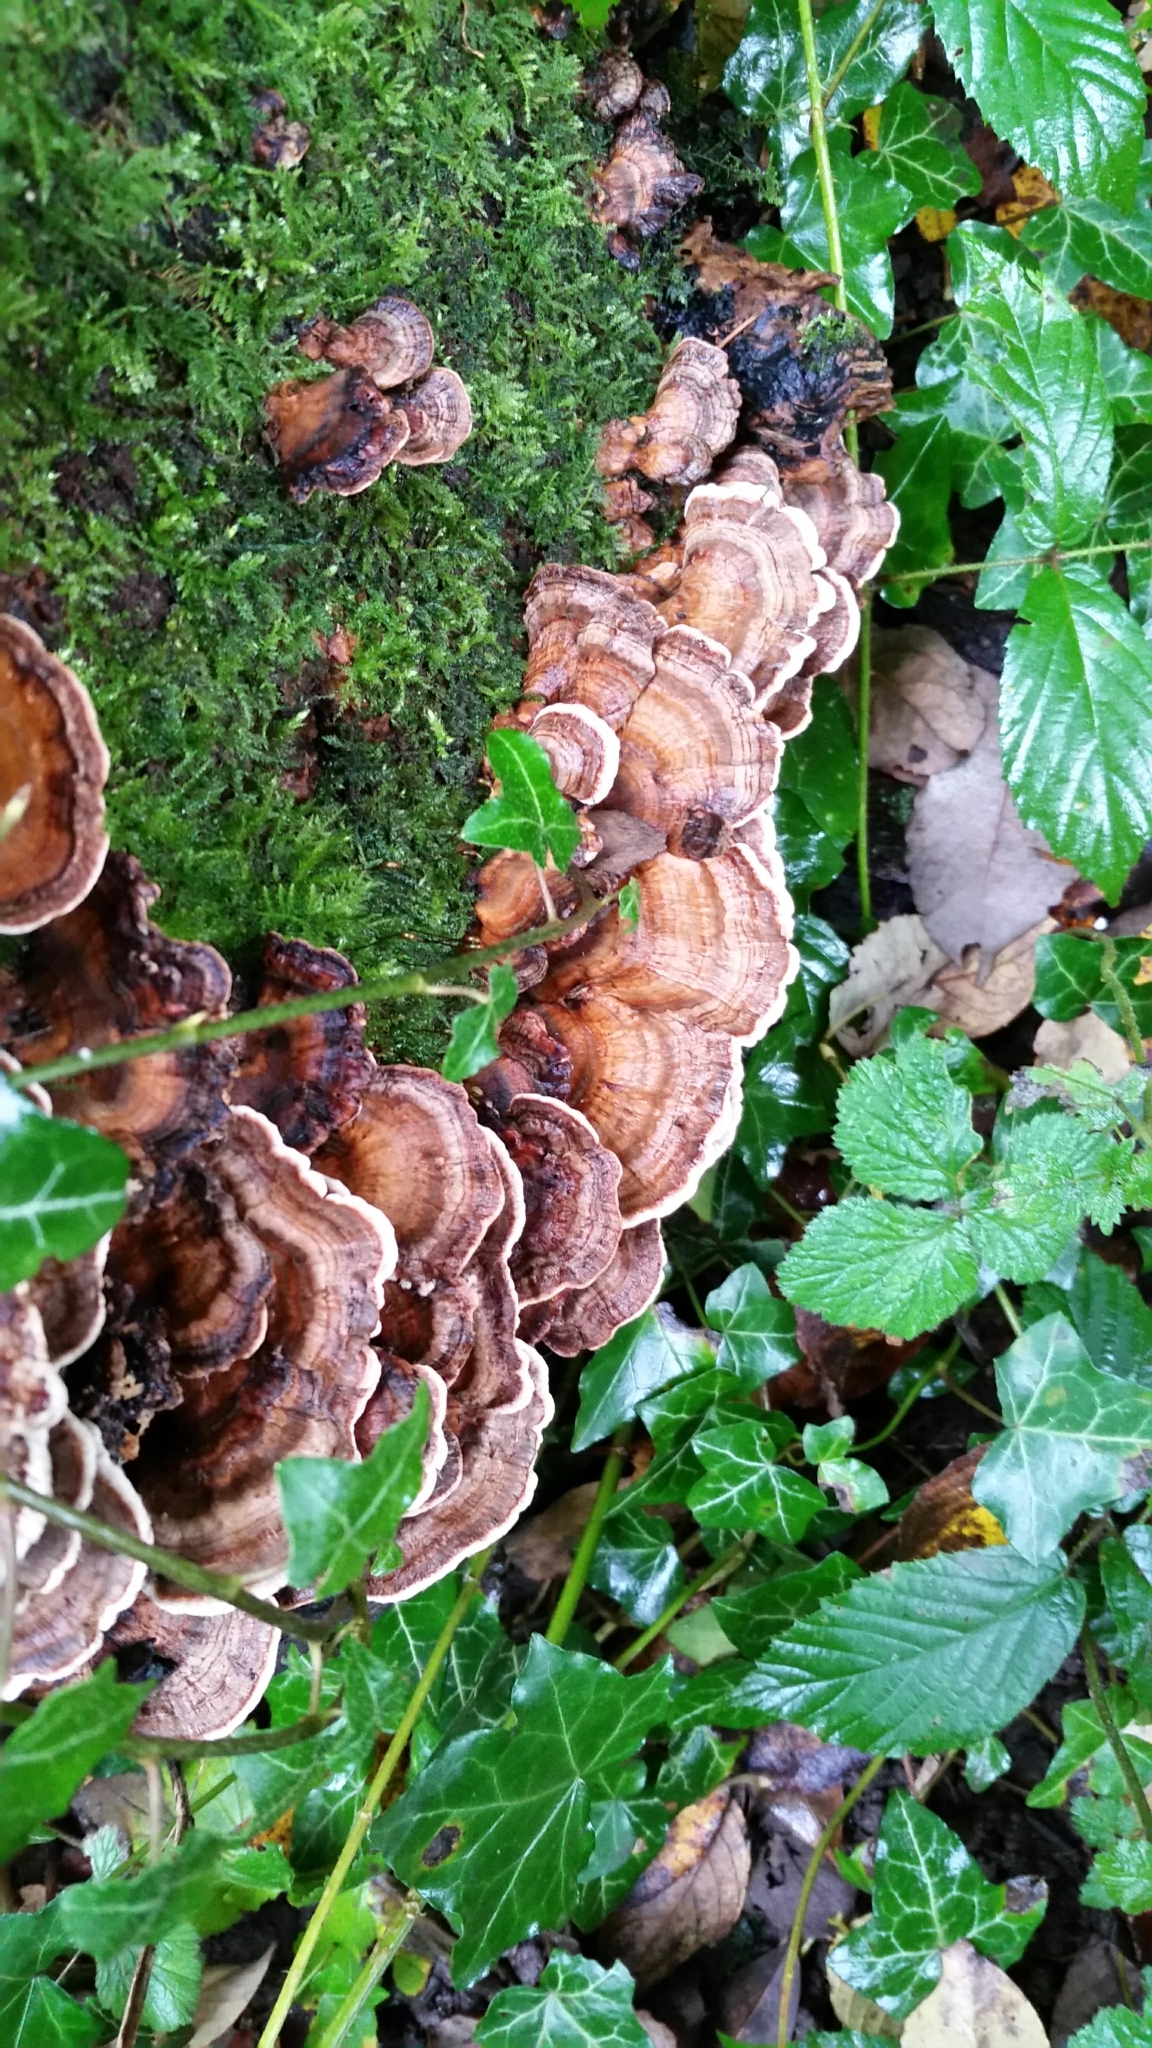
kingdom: Fungi
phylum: Basidiomycota
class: Agaricomycetes
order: Polyporales
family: Polyporaceae
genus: Trametes
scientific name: Trametes versicolor
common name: Turkeytail
